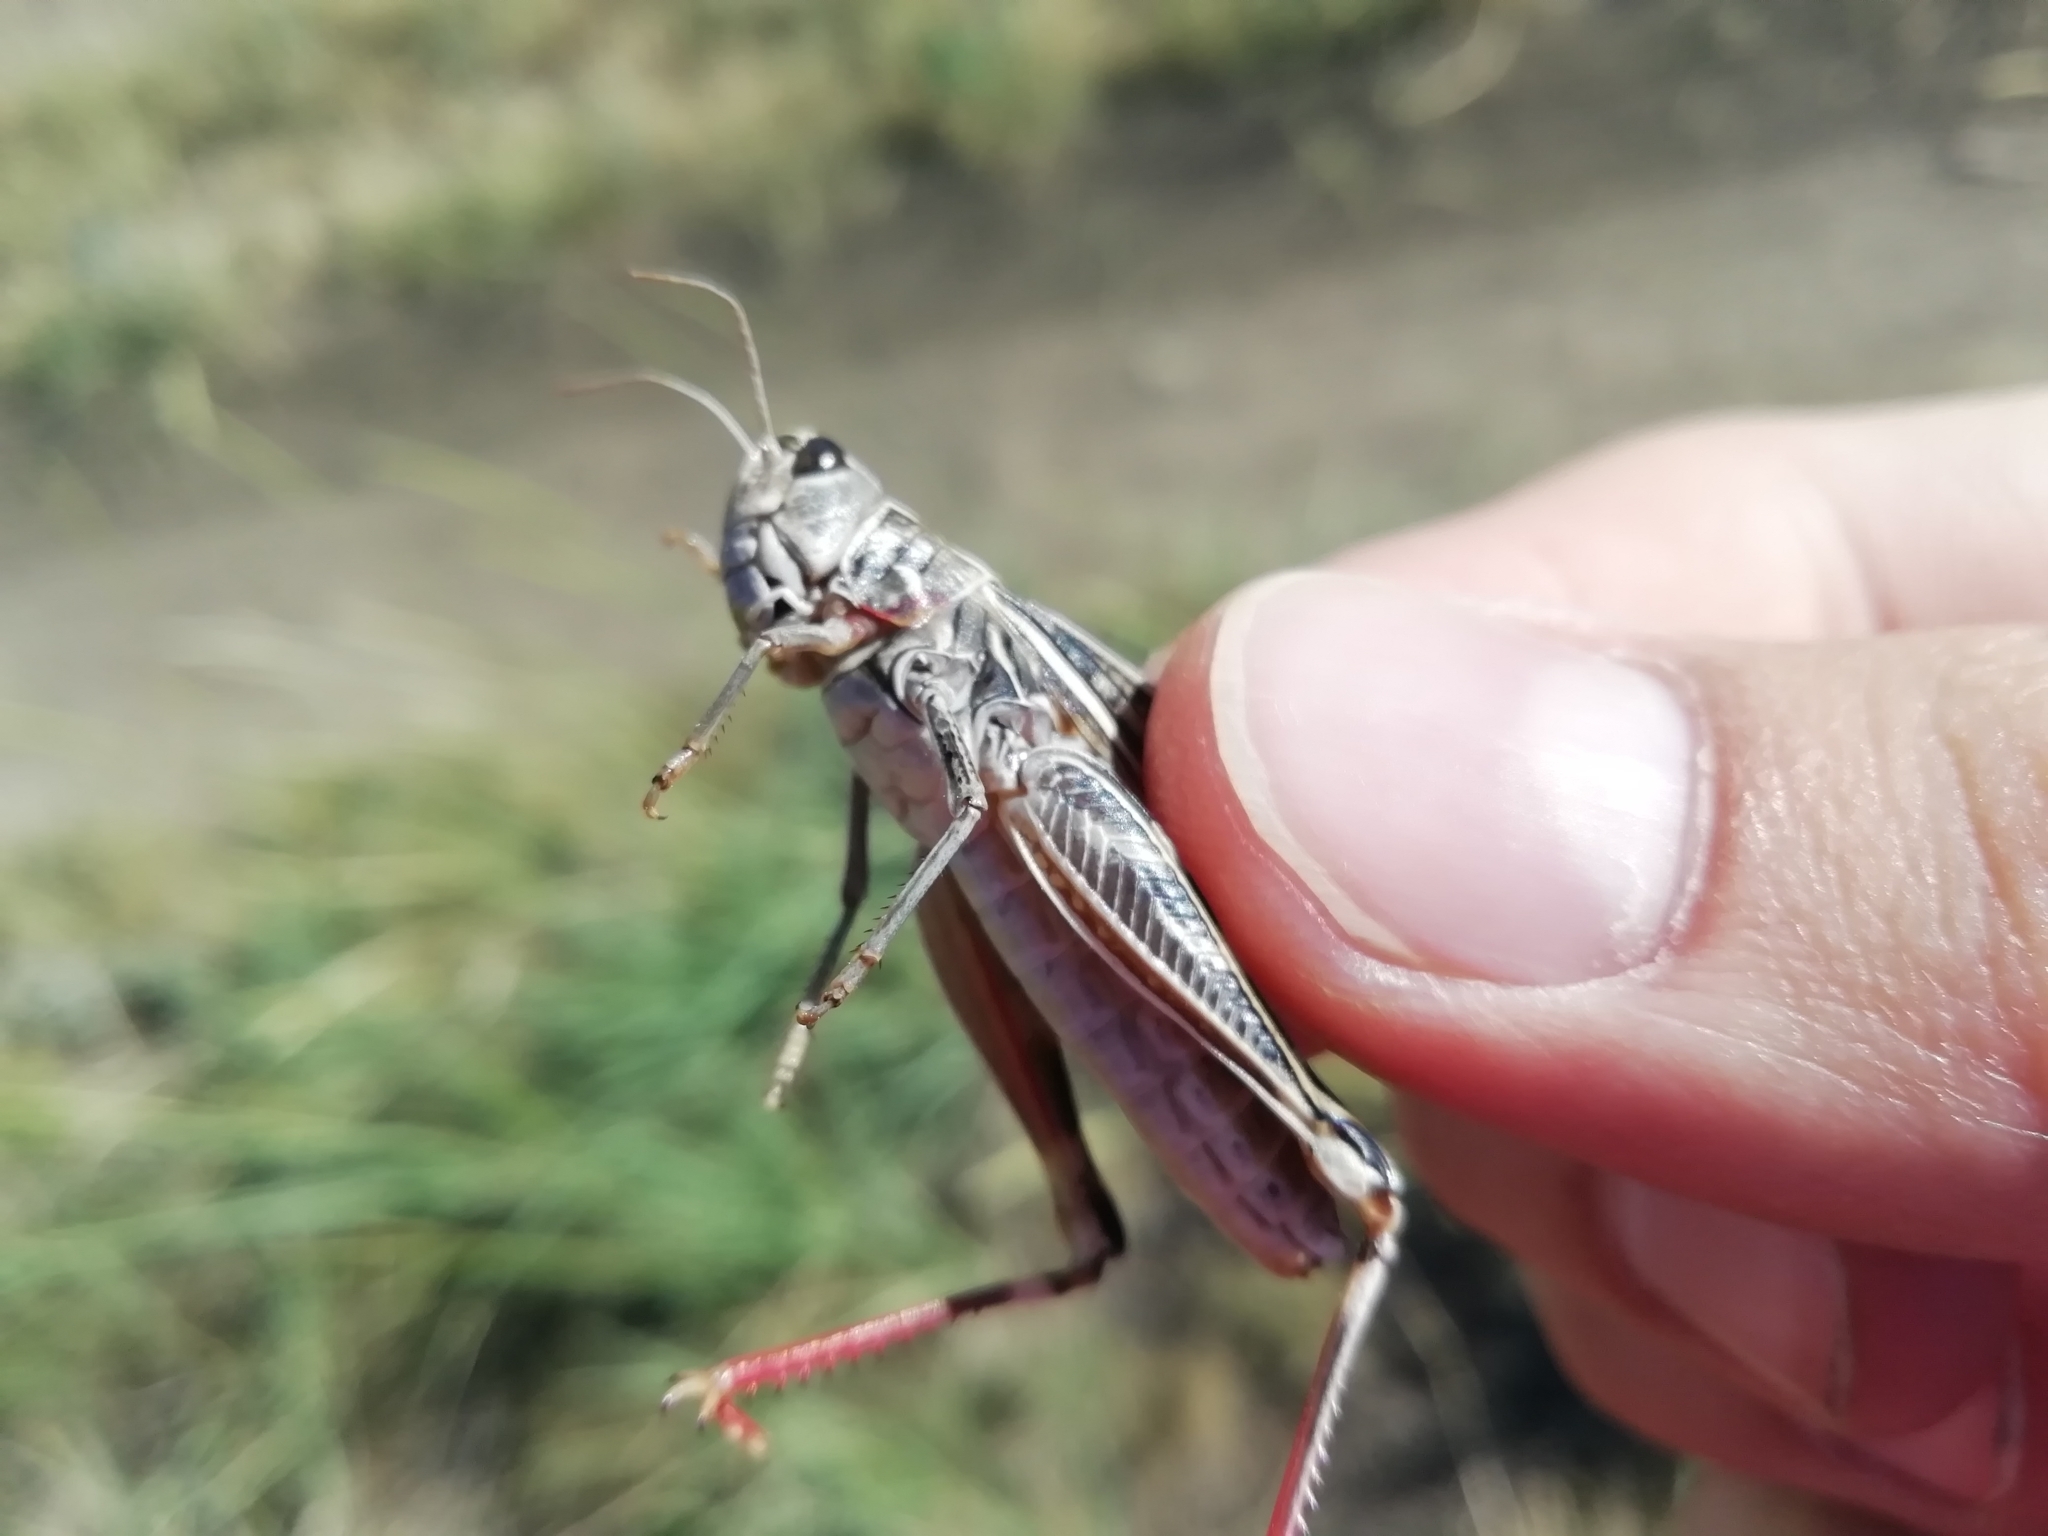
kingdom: Animalia
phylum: Arthropoda
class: Insecta
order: Orthoptera
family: Acrididae
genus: Arcyptera
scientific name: Arcyptera microptera
